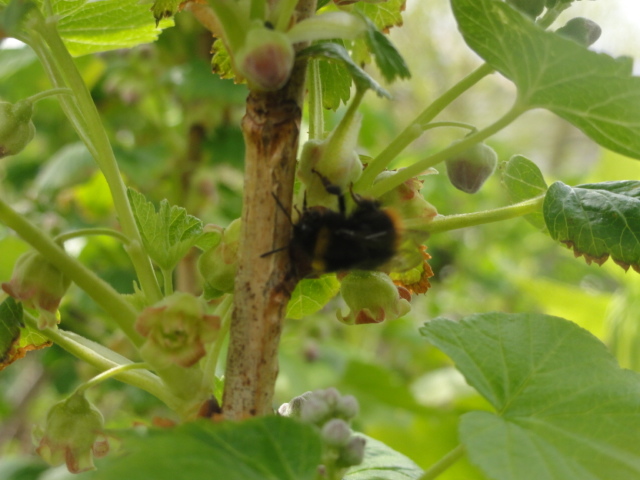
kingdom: Animalia
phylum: Arthropoda
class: Insecta
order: Hymenoptera
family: Apidae
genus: Bombus
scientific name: Bombus pratorum
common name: Early humble-bee
